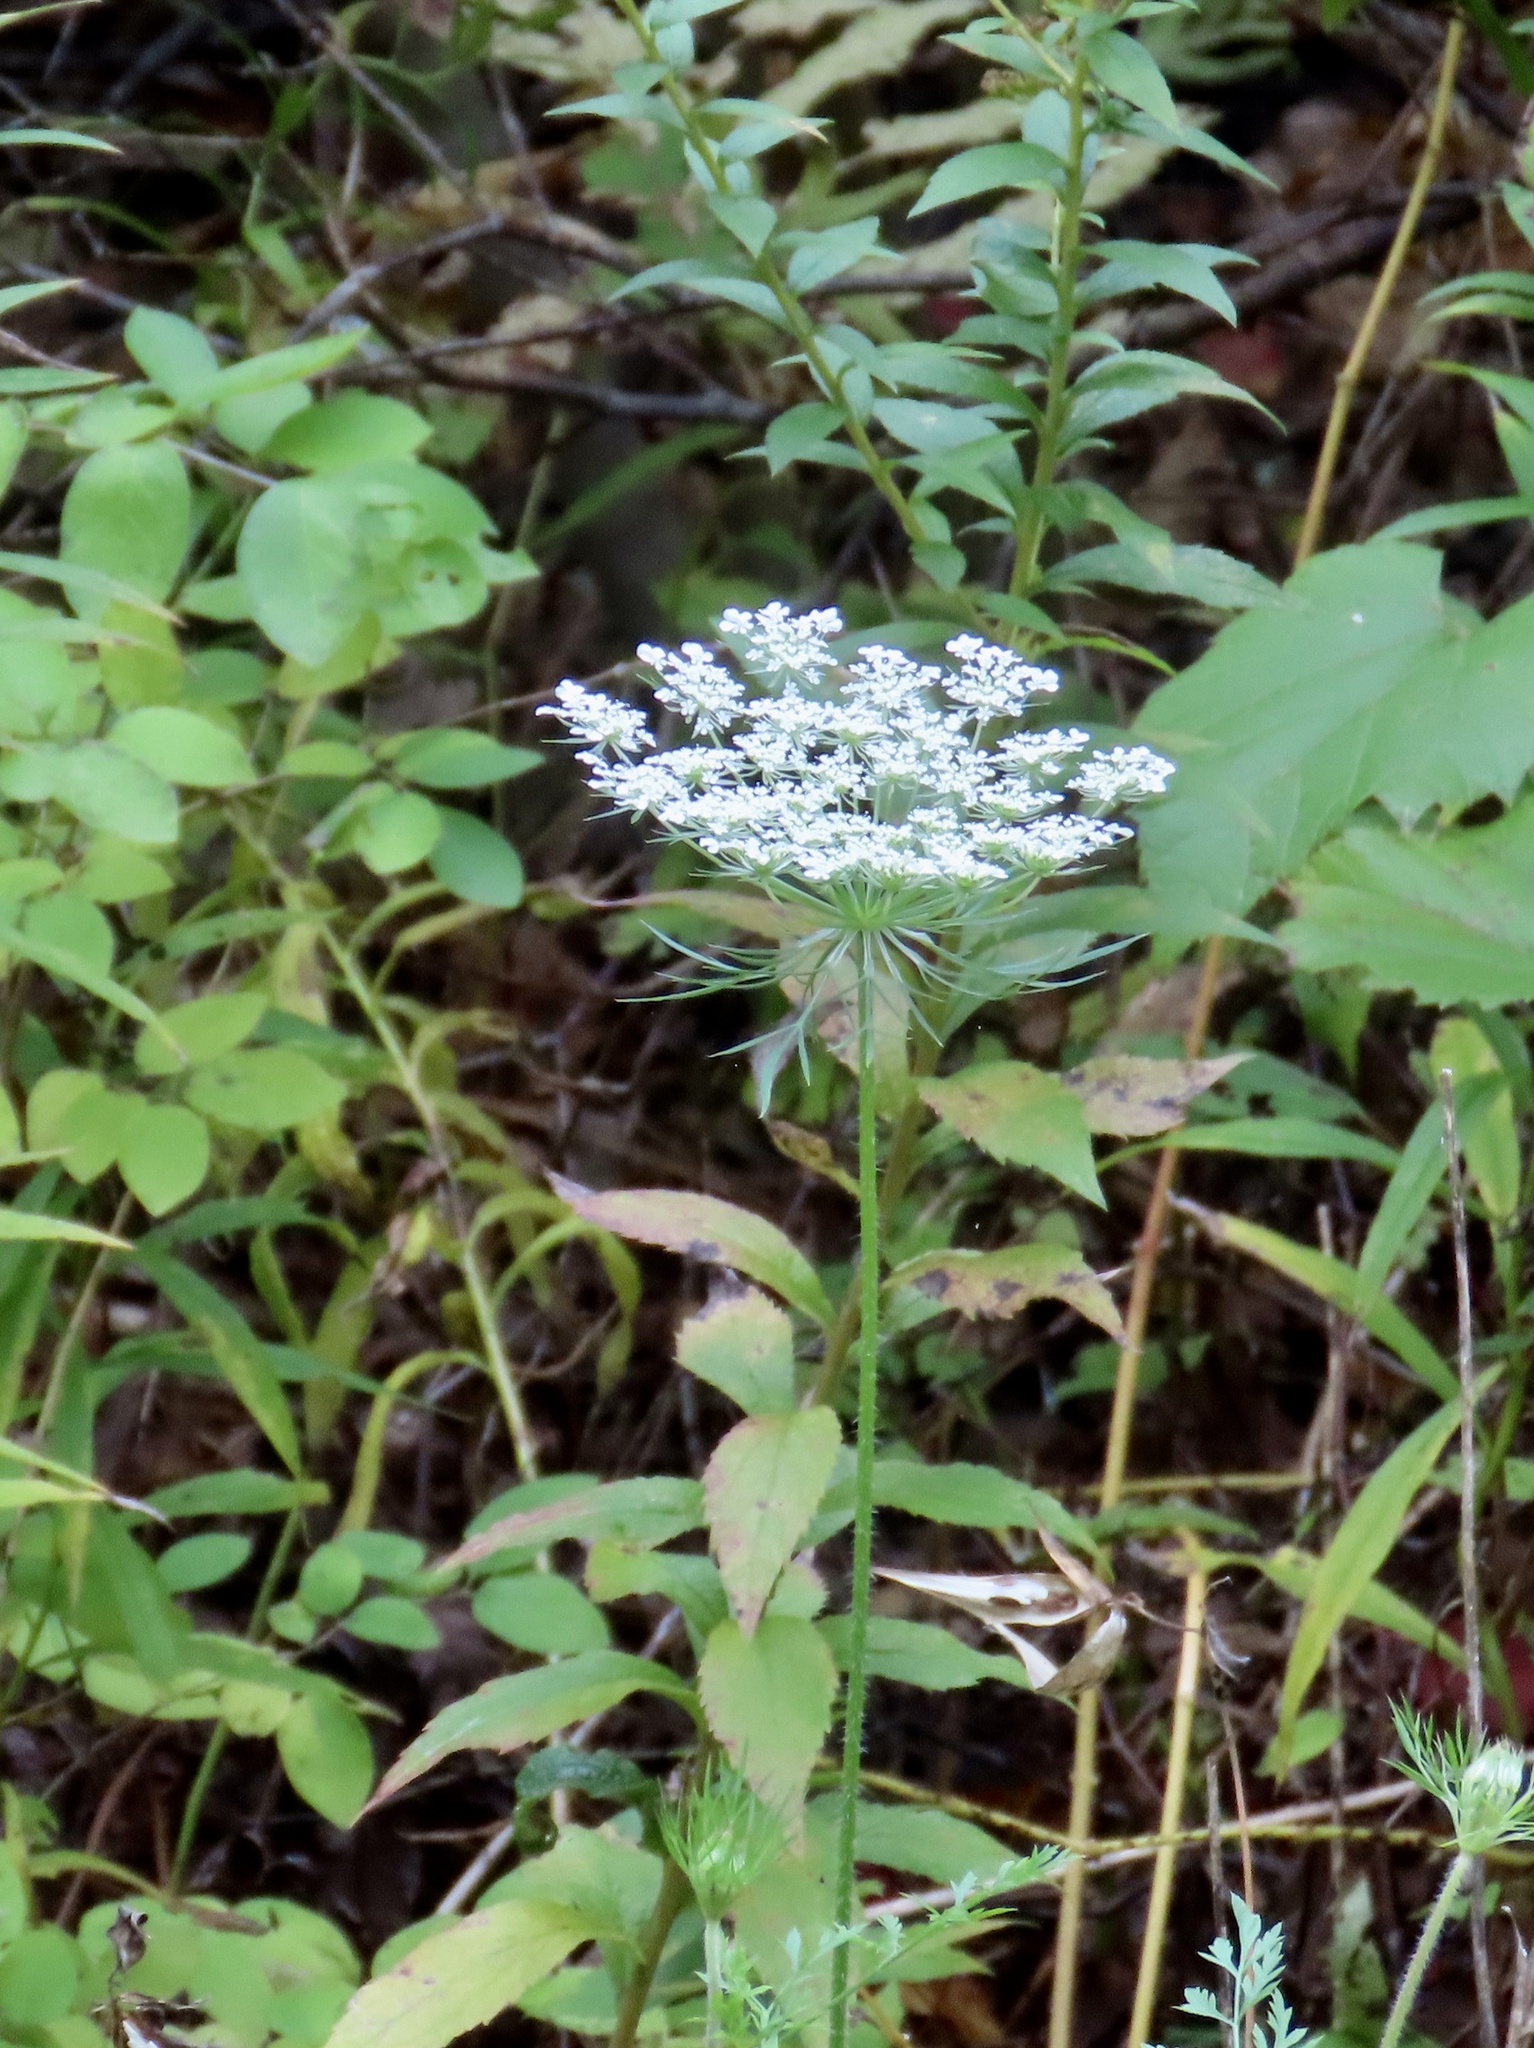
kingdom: Plantae
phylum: Tracheophyta
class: Magnoliopsida
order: Apiales
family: Apiaceae
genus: Daucus
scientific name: Daucus carota
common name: Wild carrot
